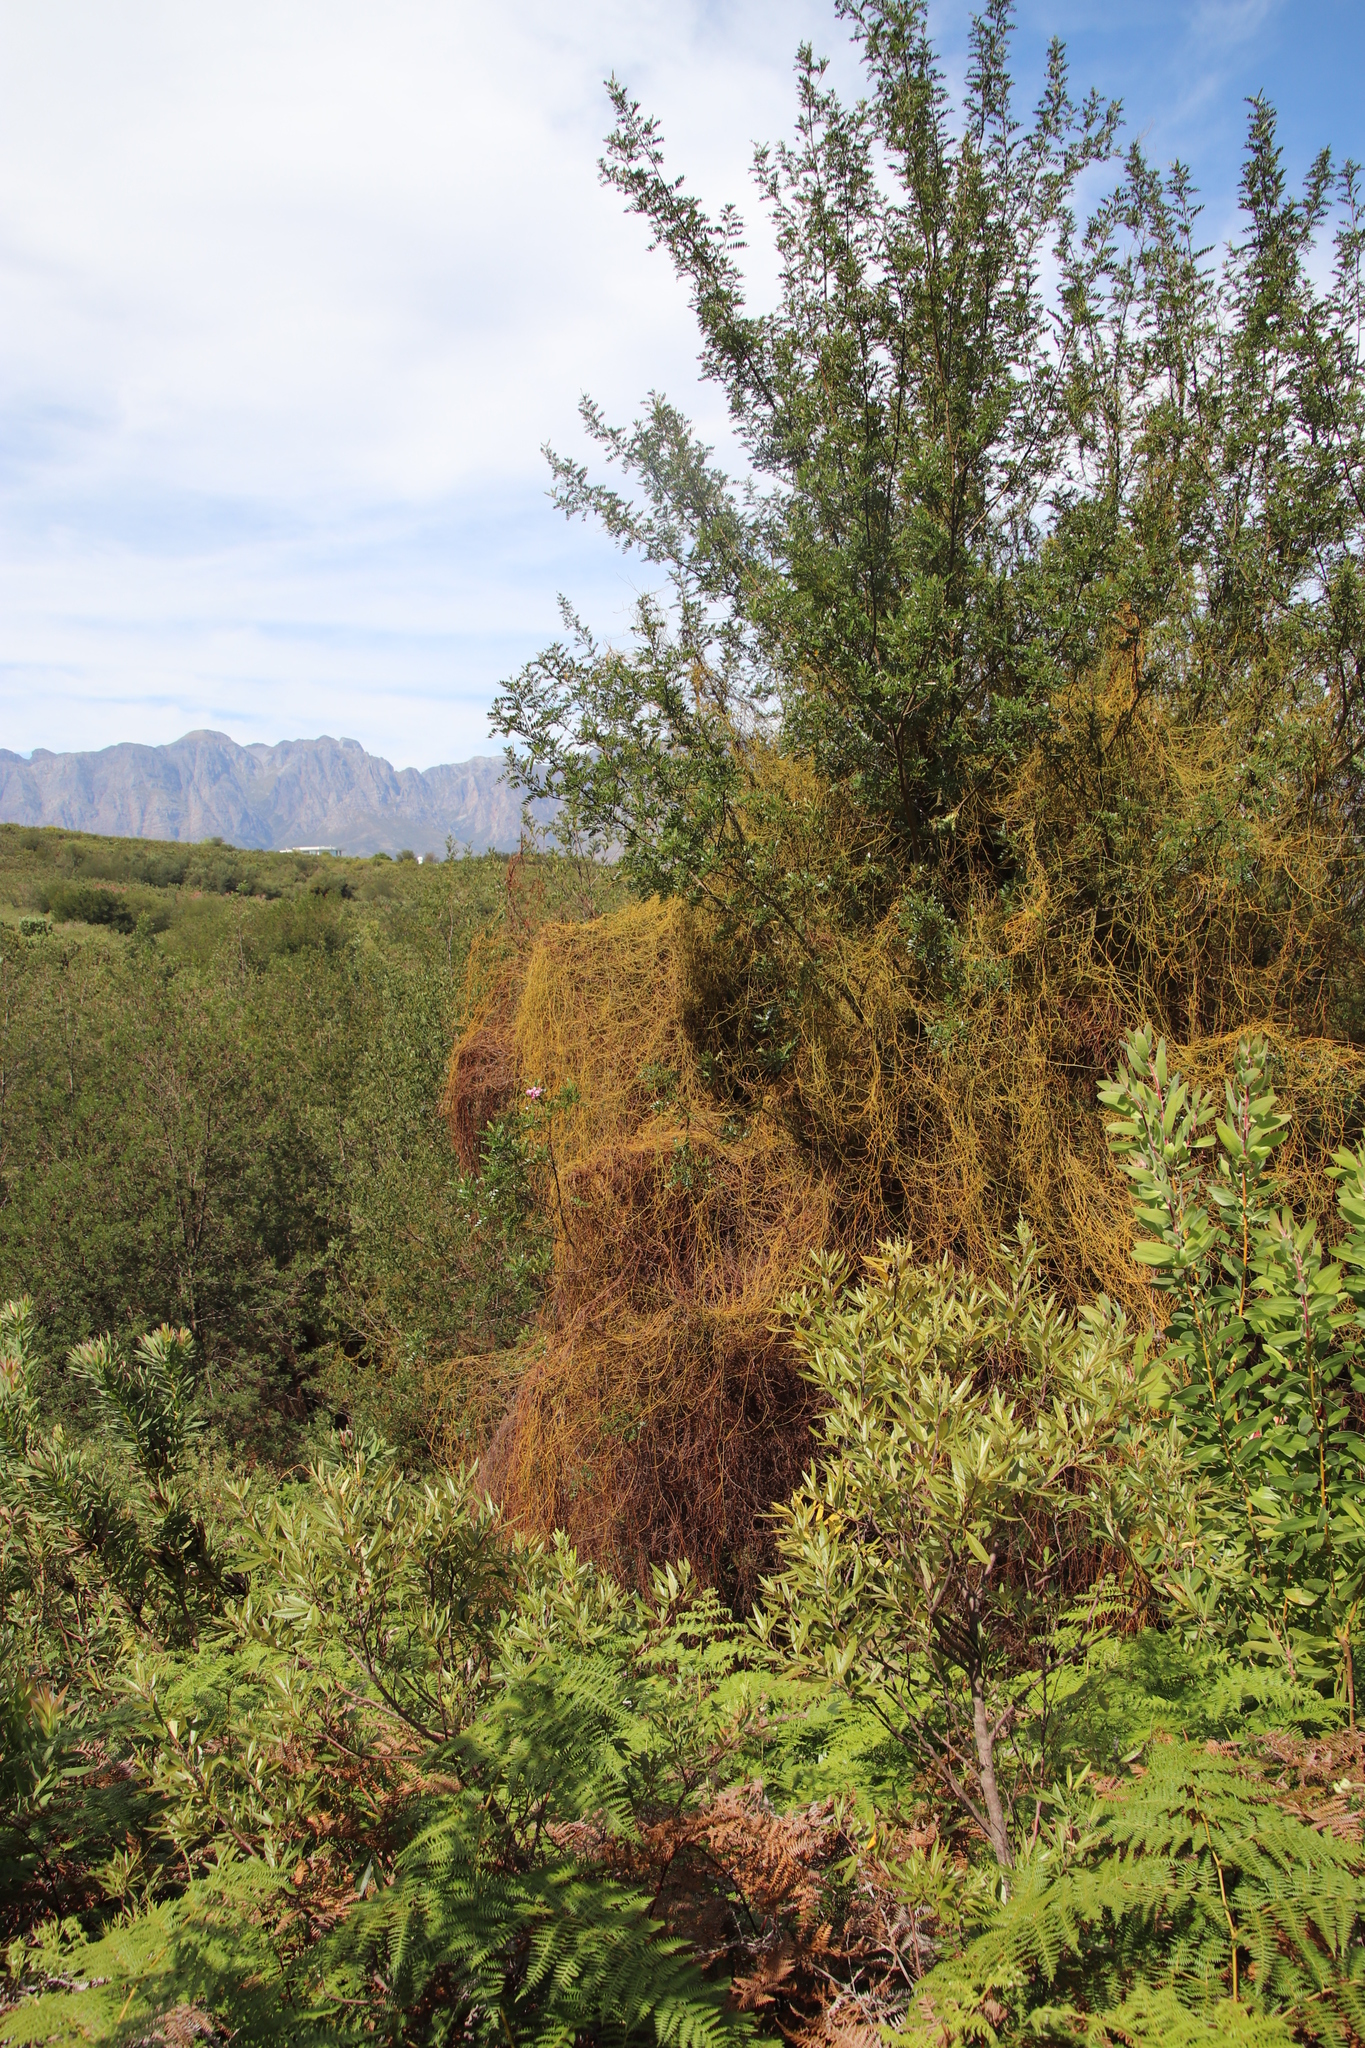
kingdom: Plantae
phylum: Tracheophyta
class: Magnoliopsida
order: Laurales
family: Lauraceae
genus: Cassytha
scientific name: Cassytha ciliolata
